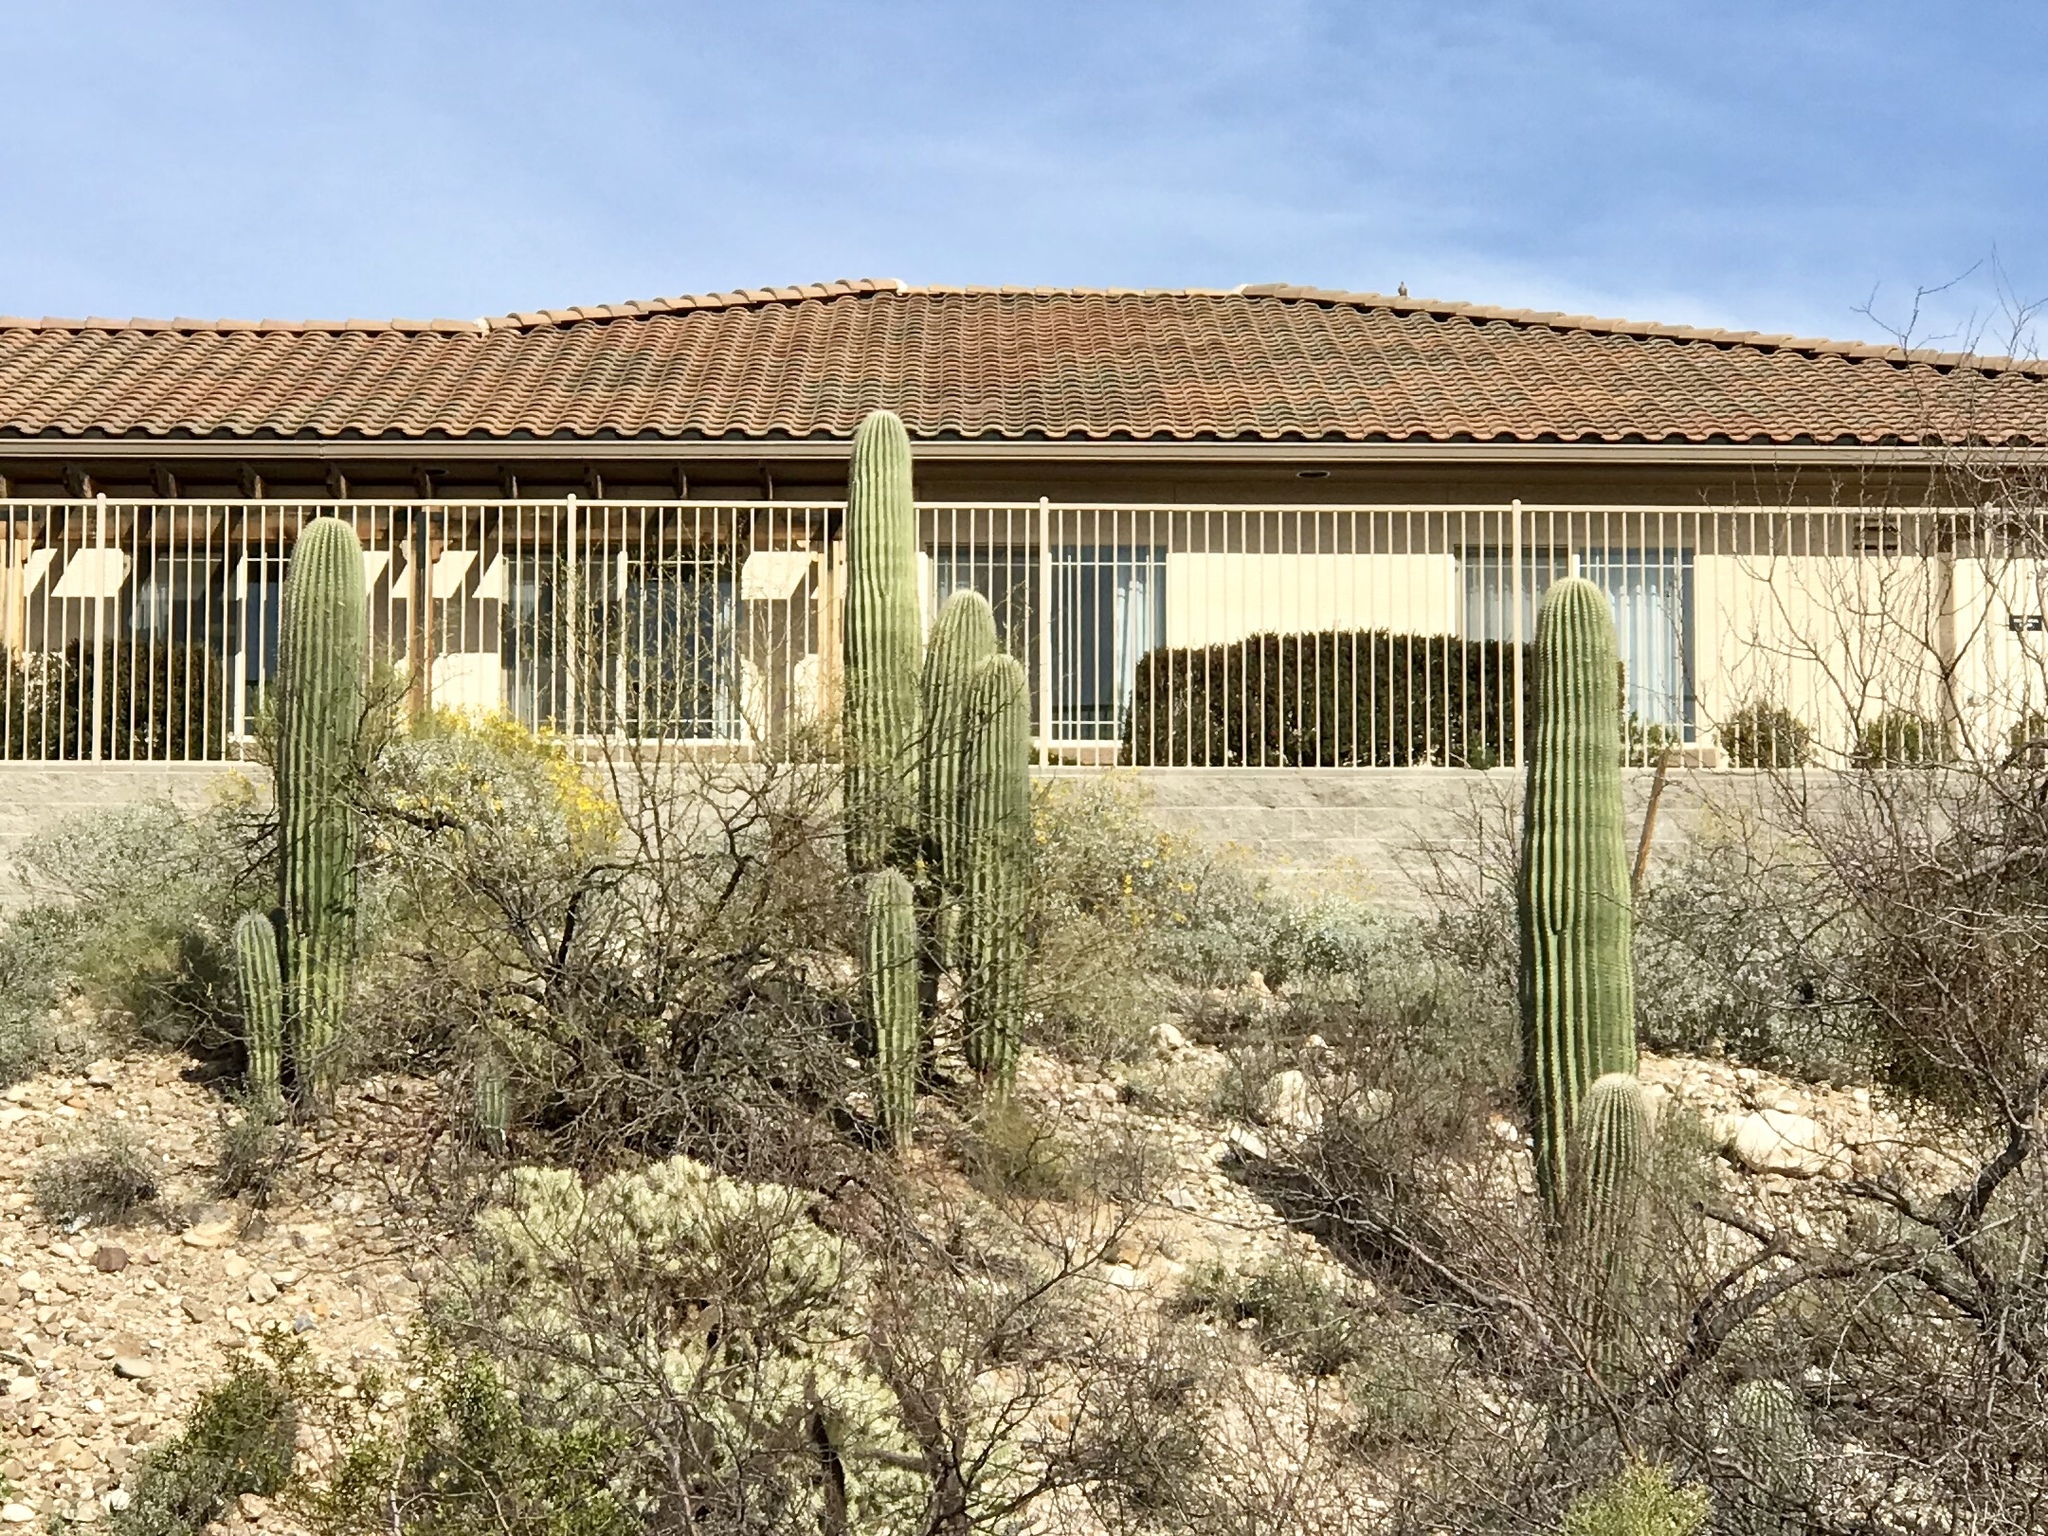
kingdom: Plantae
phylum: Tracheophyta
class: Magnoliopsida
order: Caryophyllales
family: Cactaceae
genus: Carnegiea
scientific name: Carnegiea gigantea
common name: Saguaro
